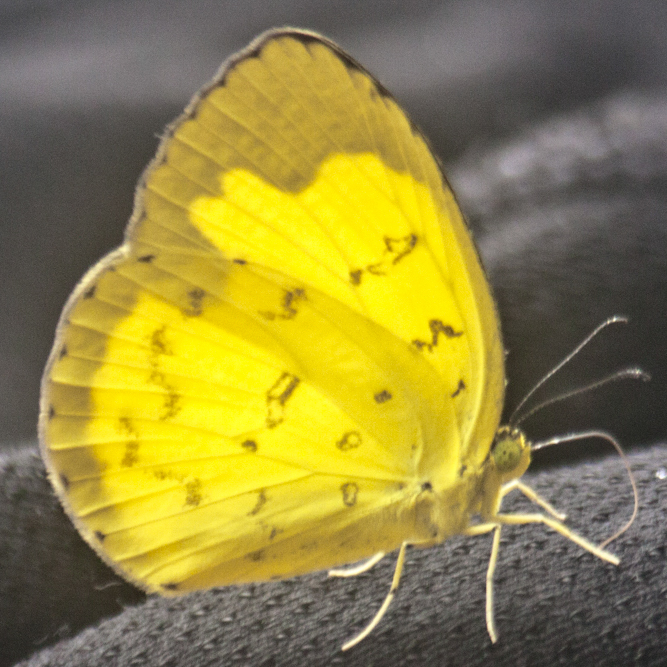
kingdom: Animalia
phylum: Arthropoda
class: Insecta
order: Lepidoptera
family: Pieridae
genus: Eurema
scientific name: Eurema simulatrix
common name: Hill grass yellow
